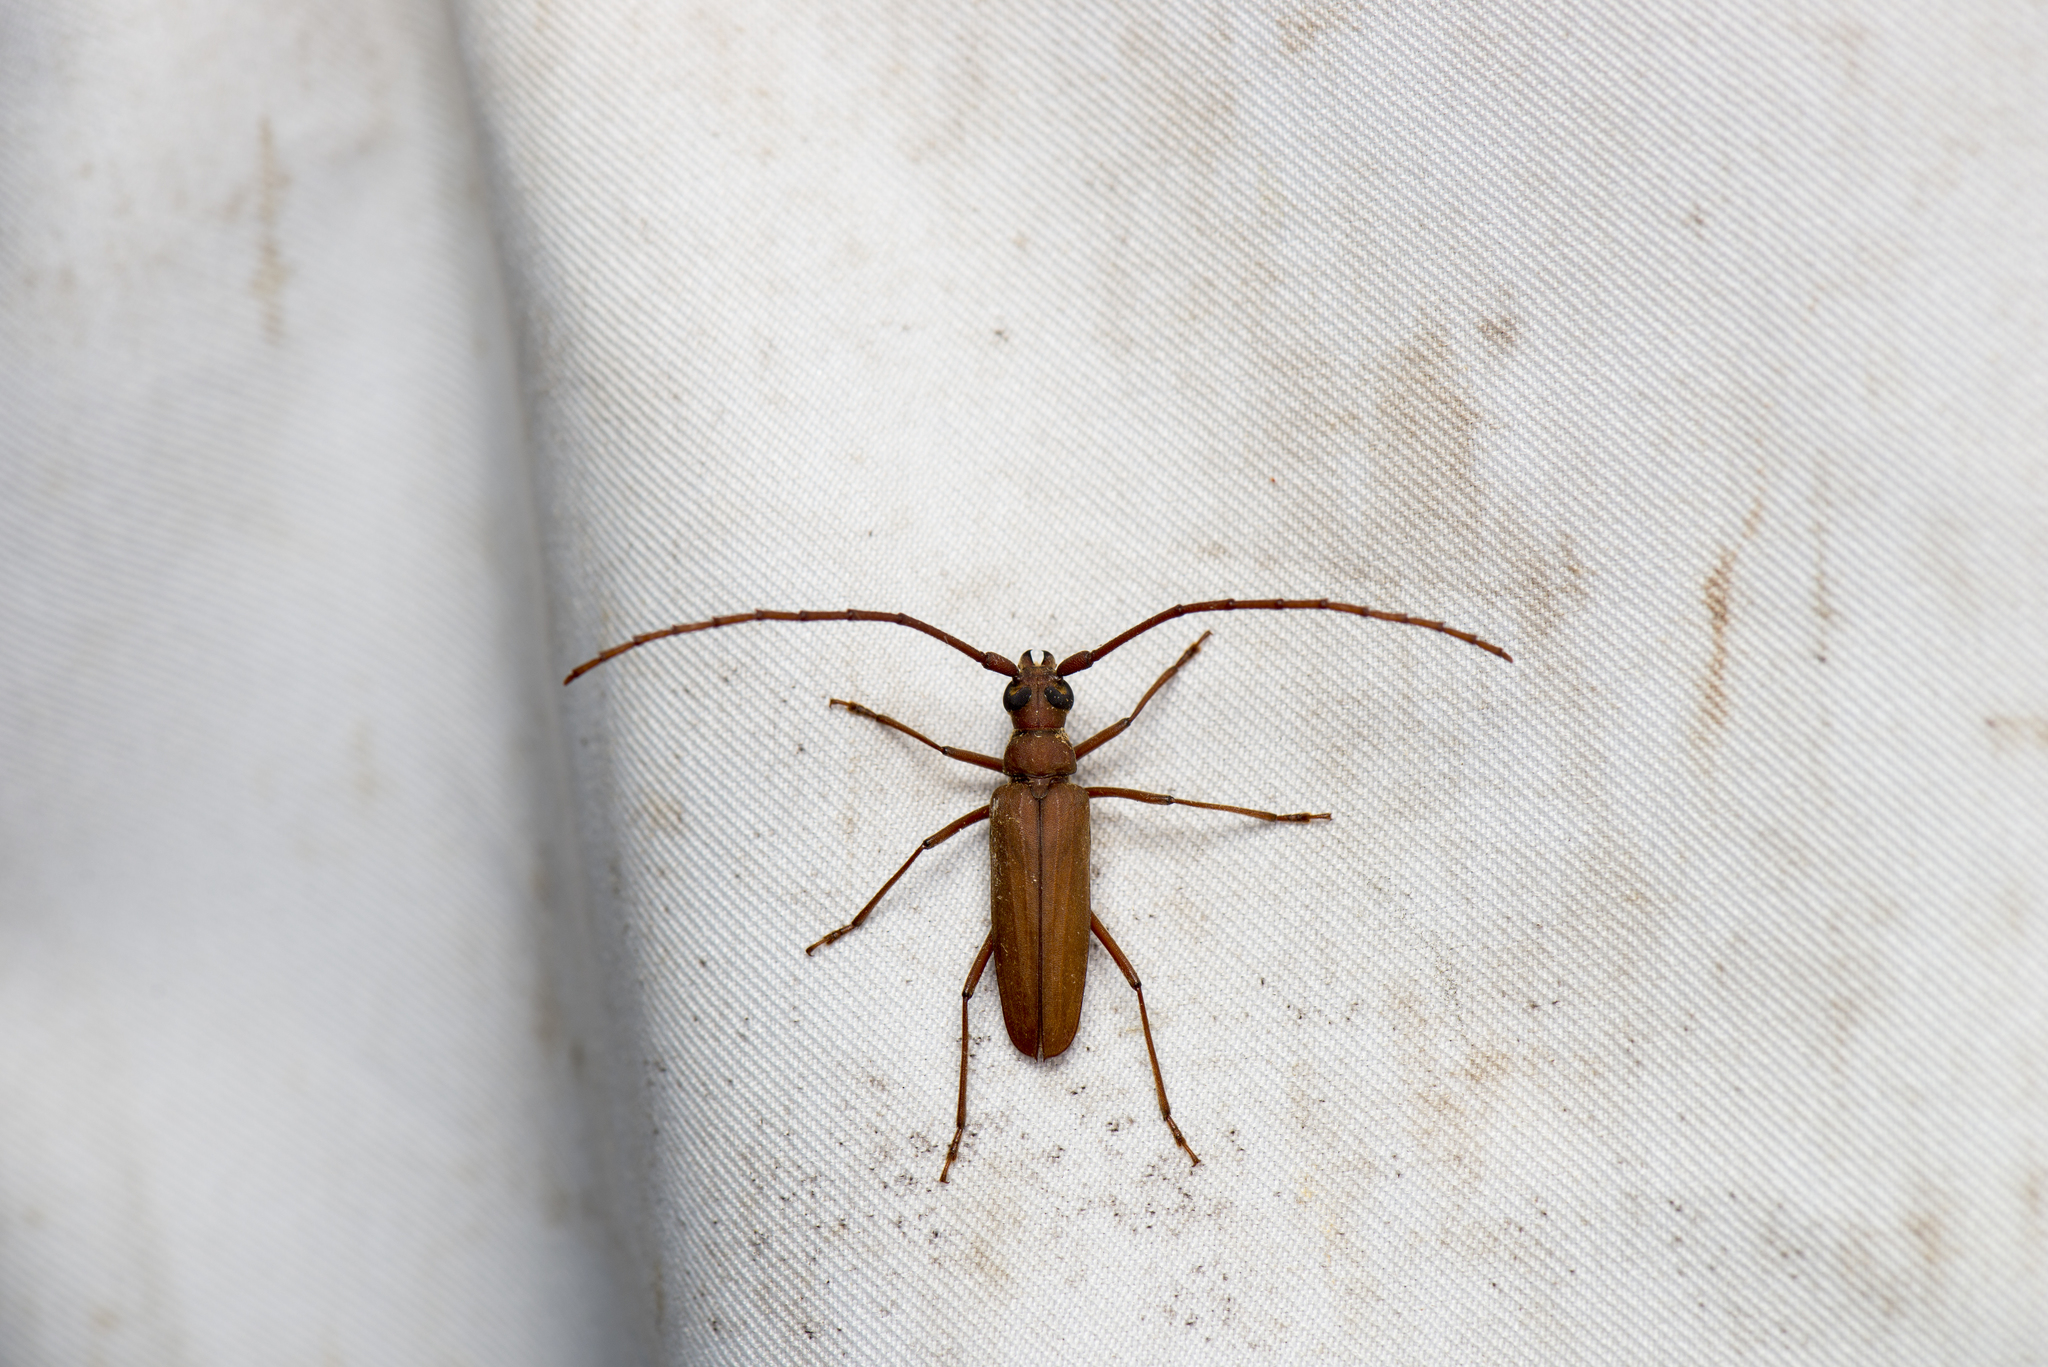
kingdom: Animalia
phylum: Arthropoda
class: Insecta
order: Coleoptera
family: Cerambycidae
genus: Aegolipton
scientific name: Aegolipton sauteri
